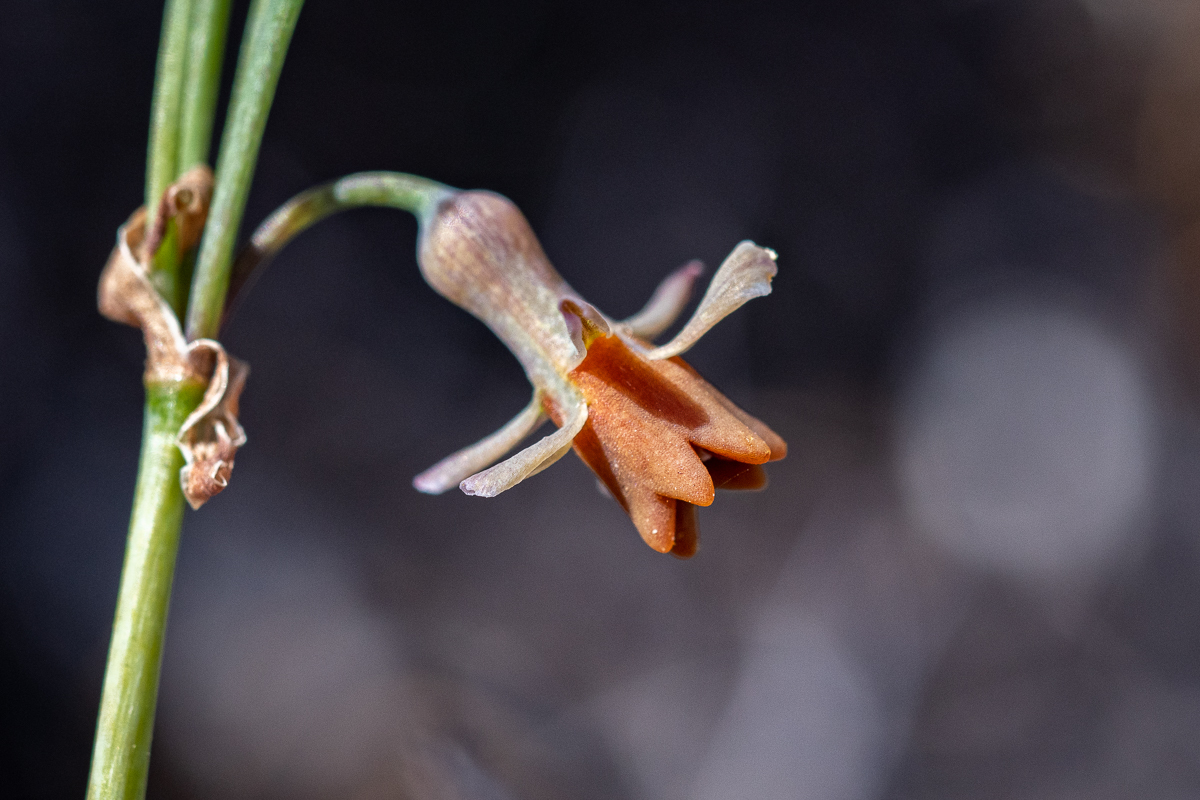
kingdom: Plantae
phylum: Tracheophyta
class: Liliopsida
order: Asparagales
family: Amaryllidaceae
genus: Tulbaghia
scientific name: Tulbaghia alliacea
